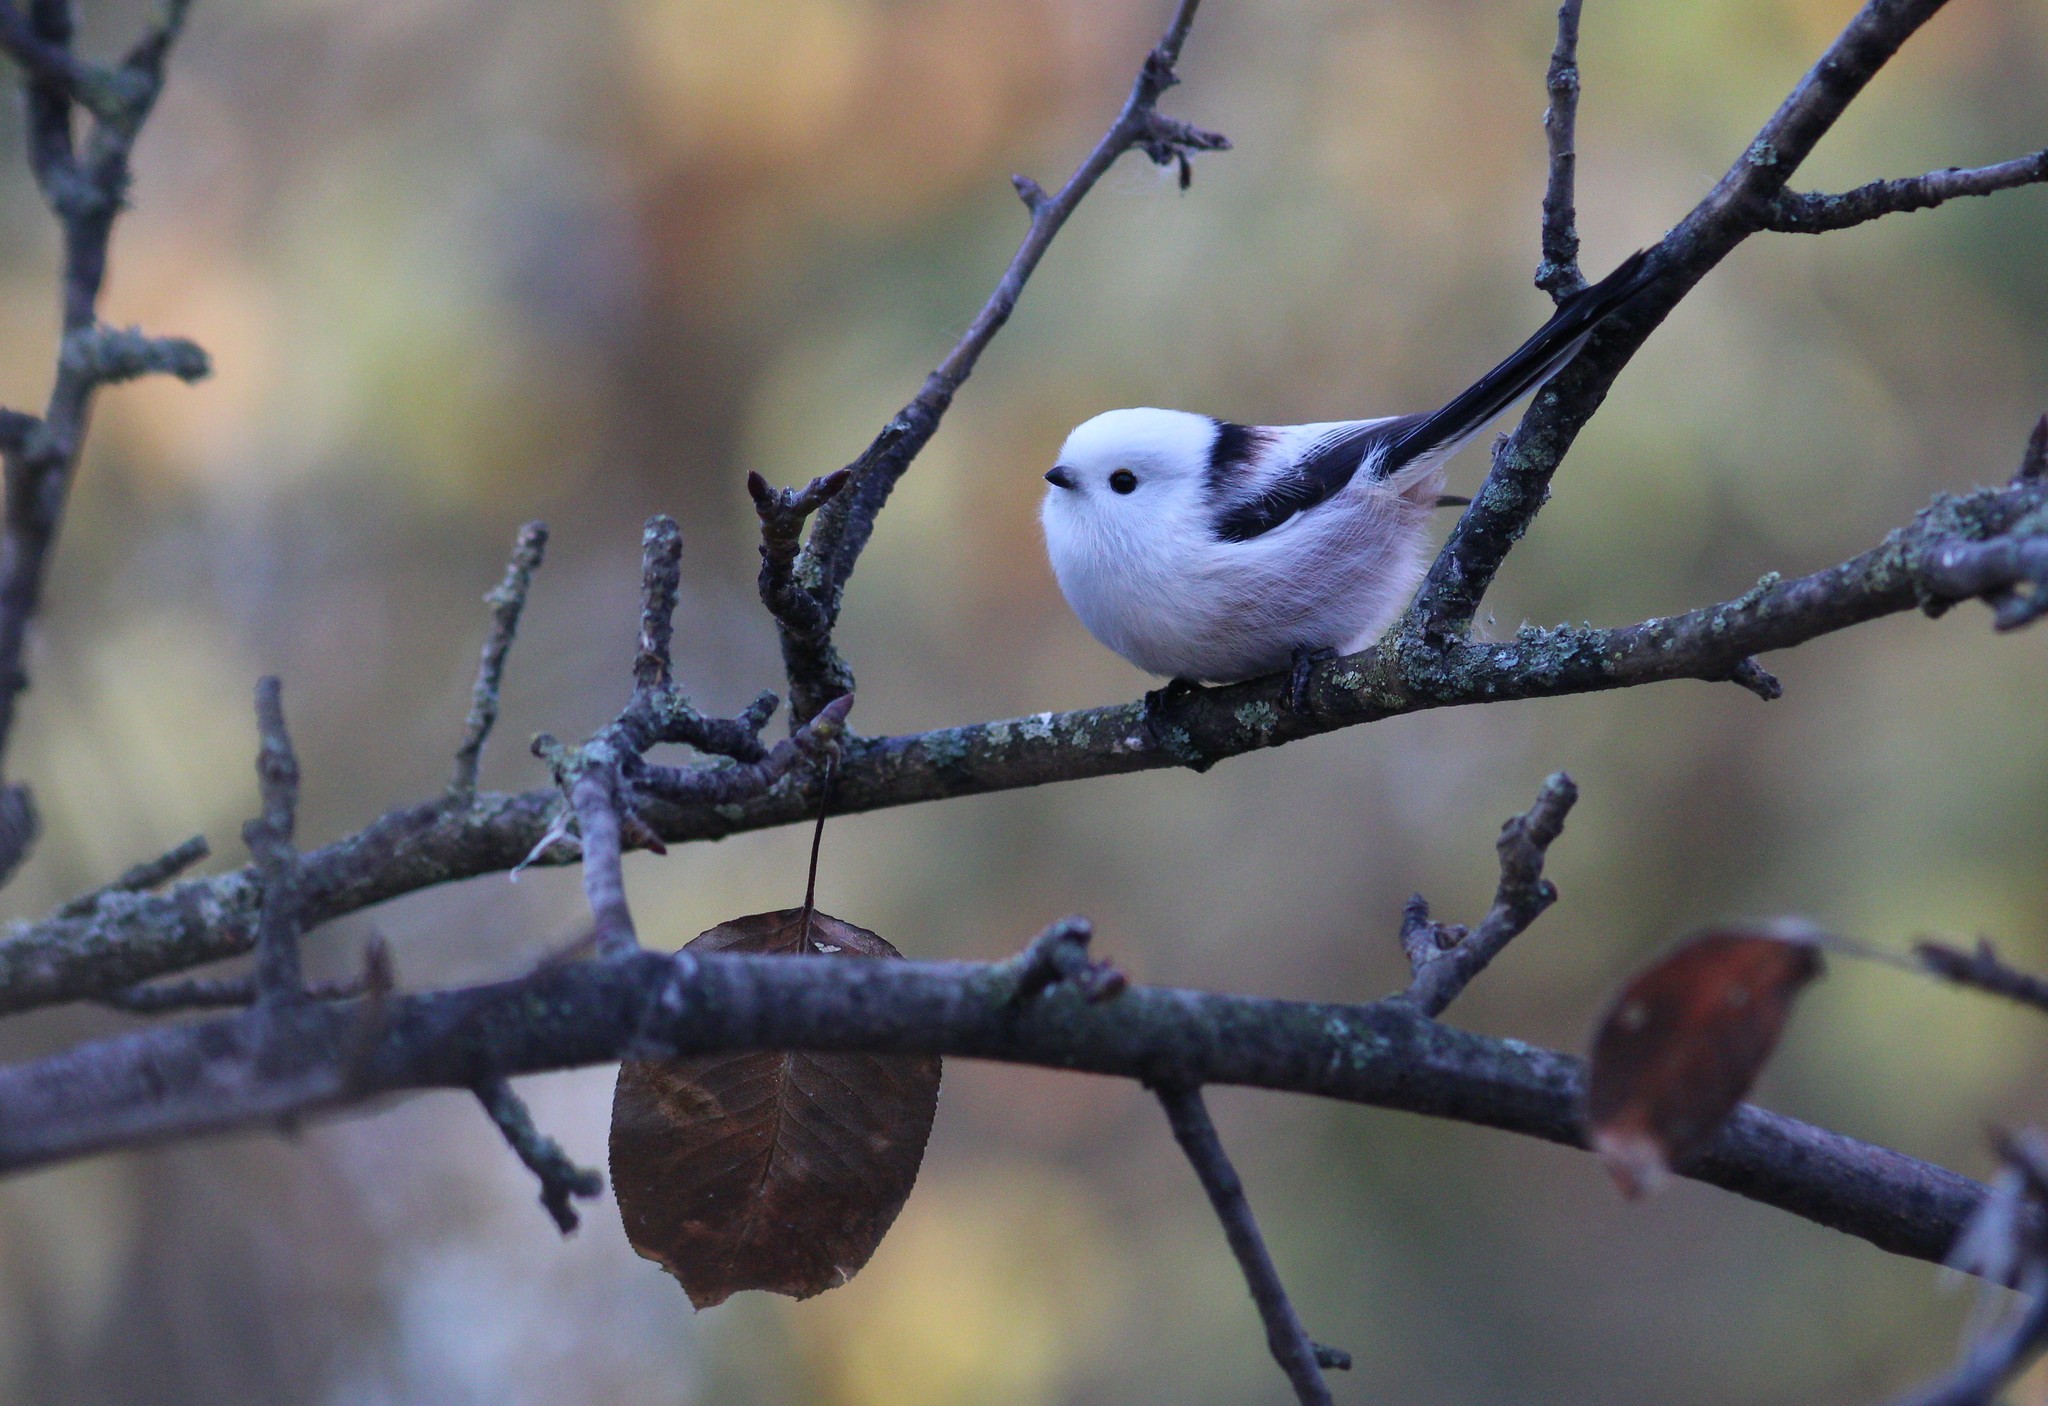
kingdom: Animalia
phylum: Chordata
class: Aves
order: Passeriformes
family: Aegithalidae
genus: Aegithalos
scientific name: Aegithalos caudatus
